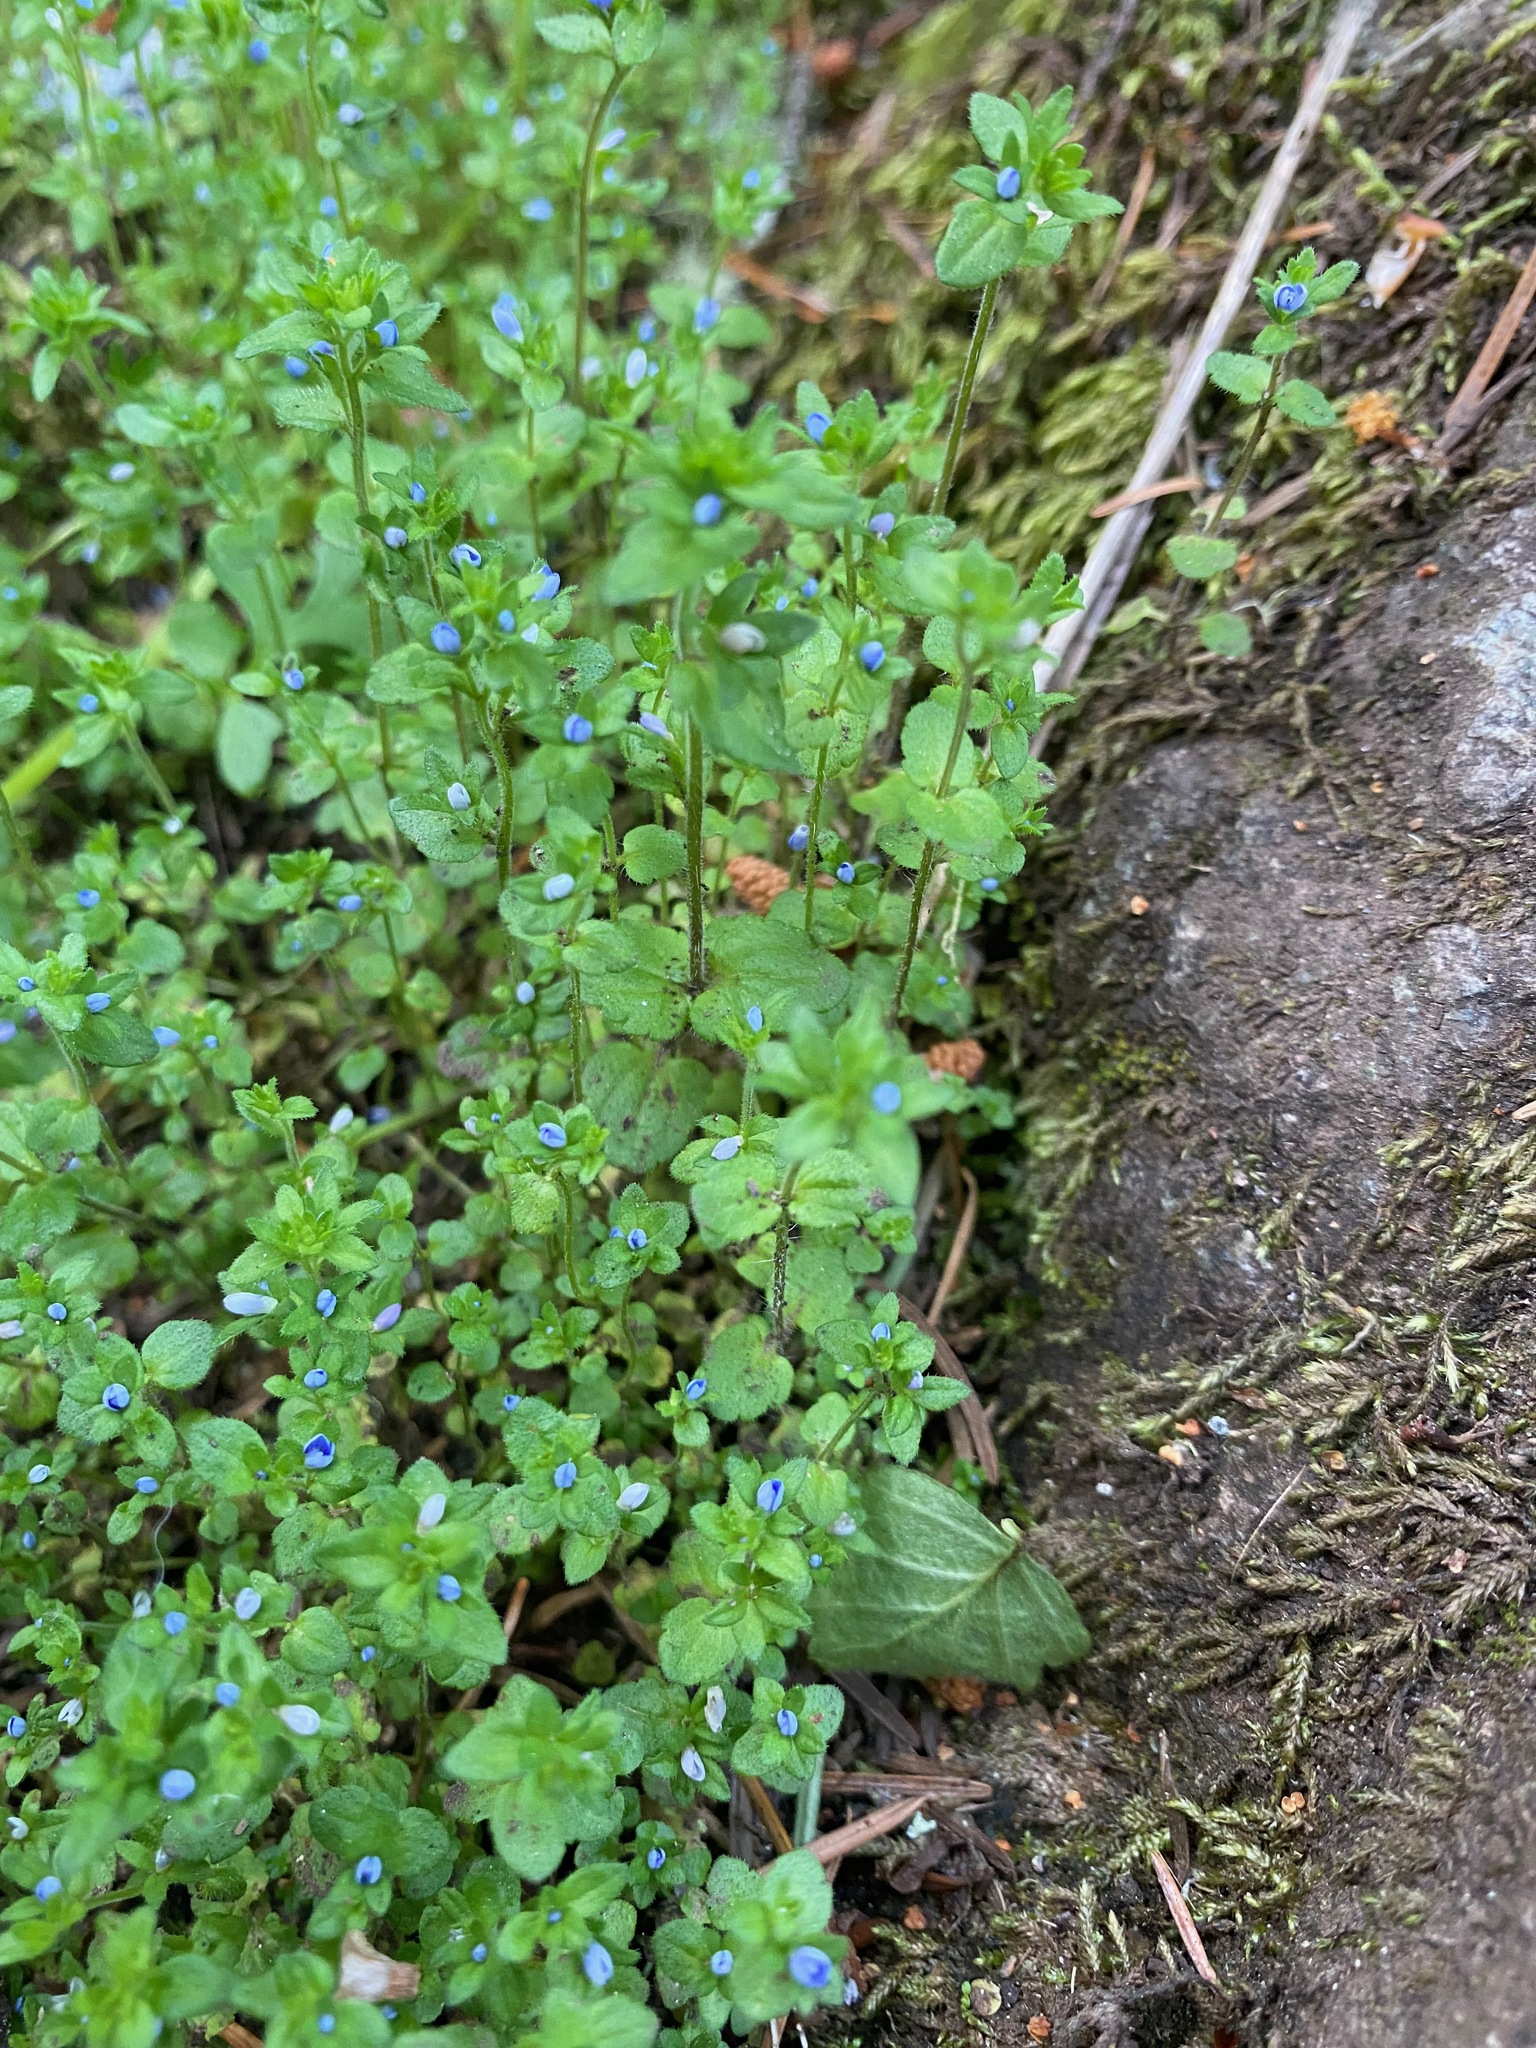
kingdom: Plantae
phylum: Tracheophyta
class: Magnoliopsida
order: Lamiales
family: Plantaginaceae
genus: Veronica
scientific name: Veronica arvensis
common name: Corn speedwell
